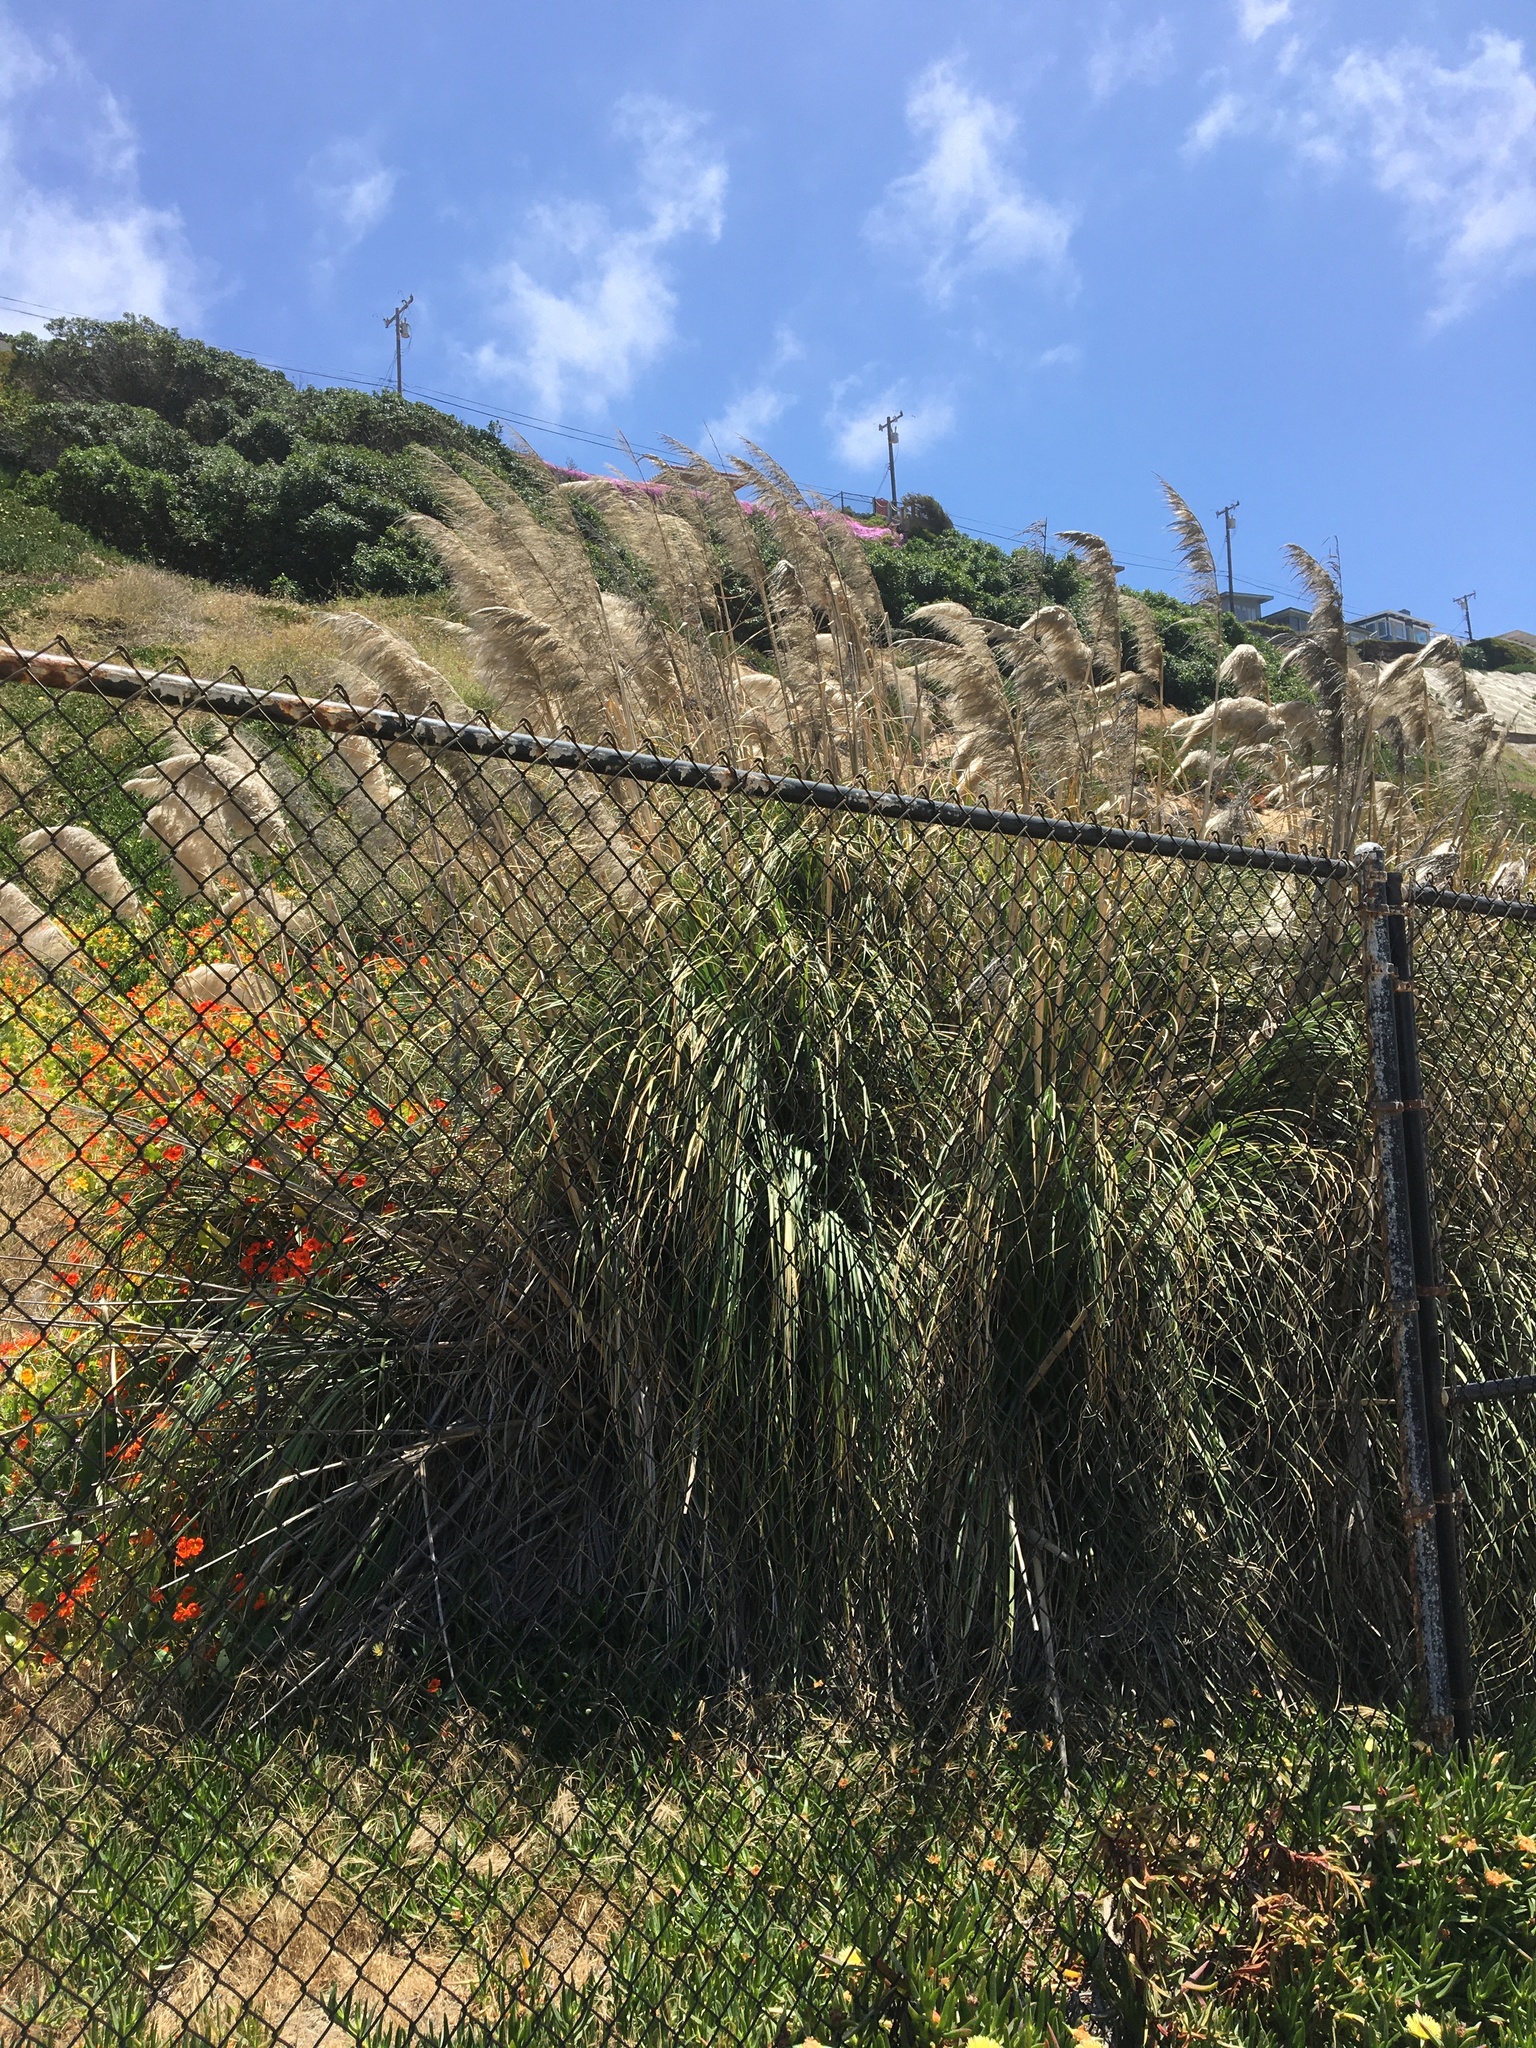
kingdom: Plantae
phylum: Tracheophyta
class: Liliopsida
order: Poales
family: Poaceae
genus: Cortaderia
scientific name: Cortaderia selloana
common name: Uruguayan pampas grass
